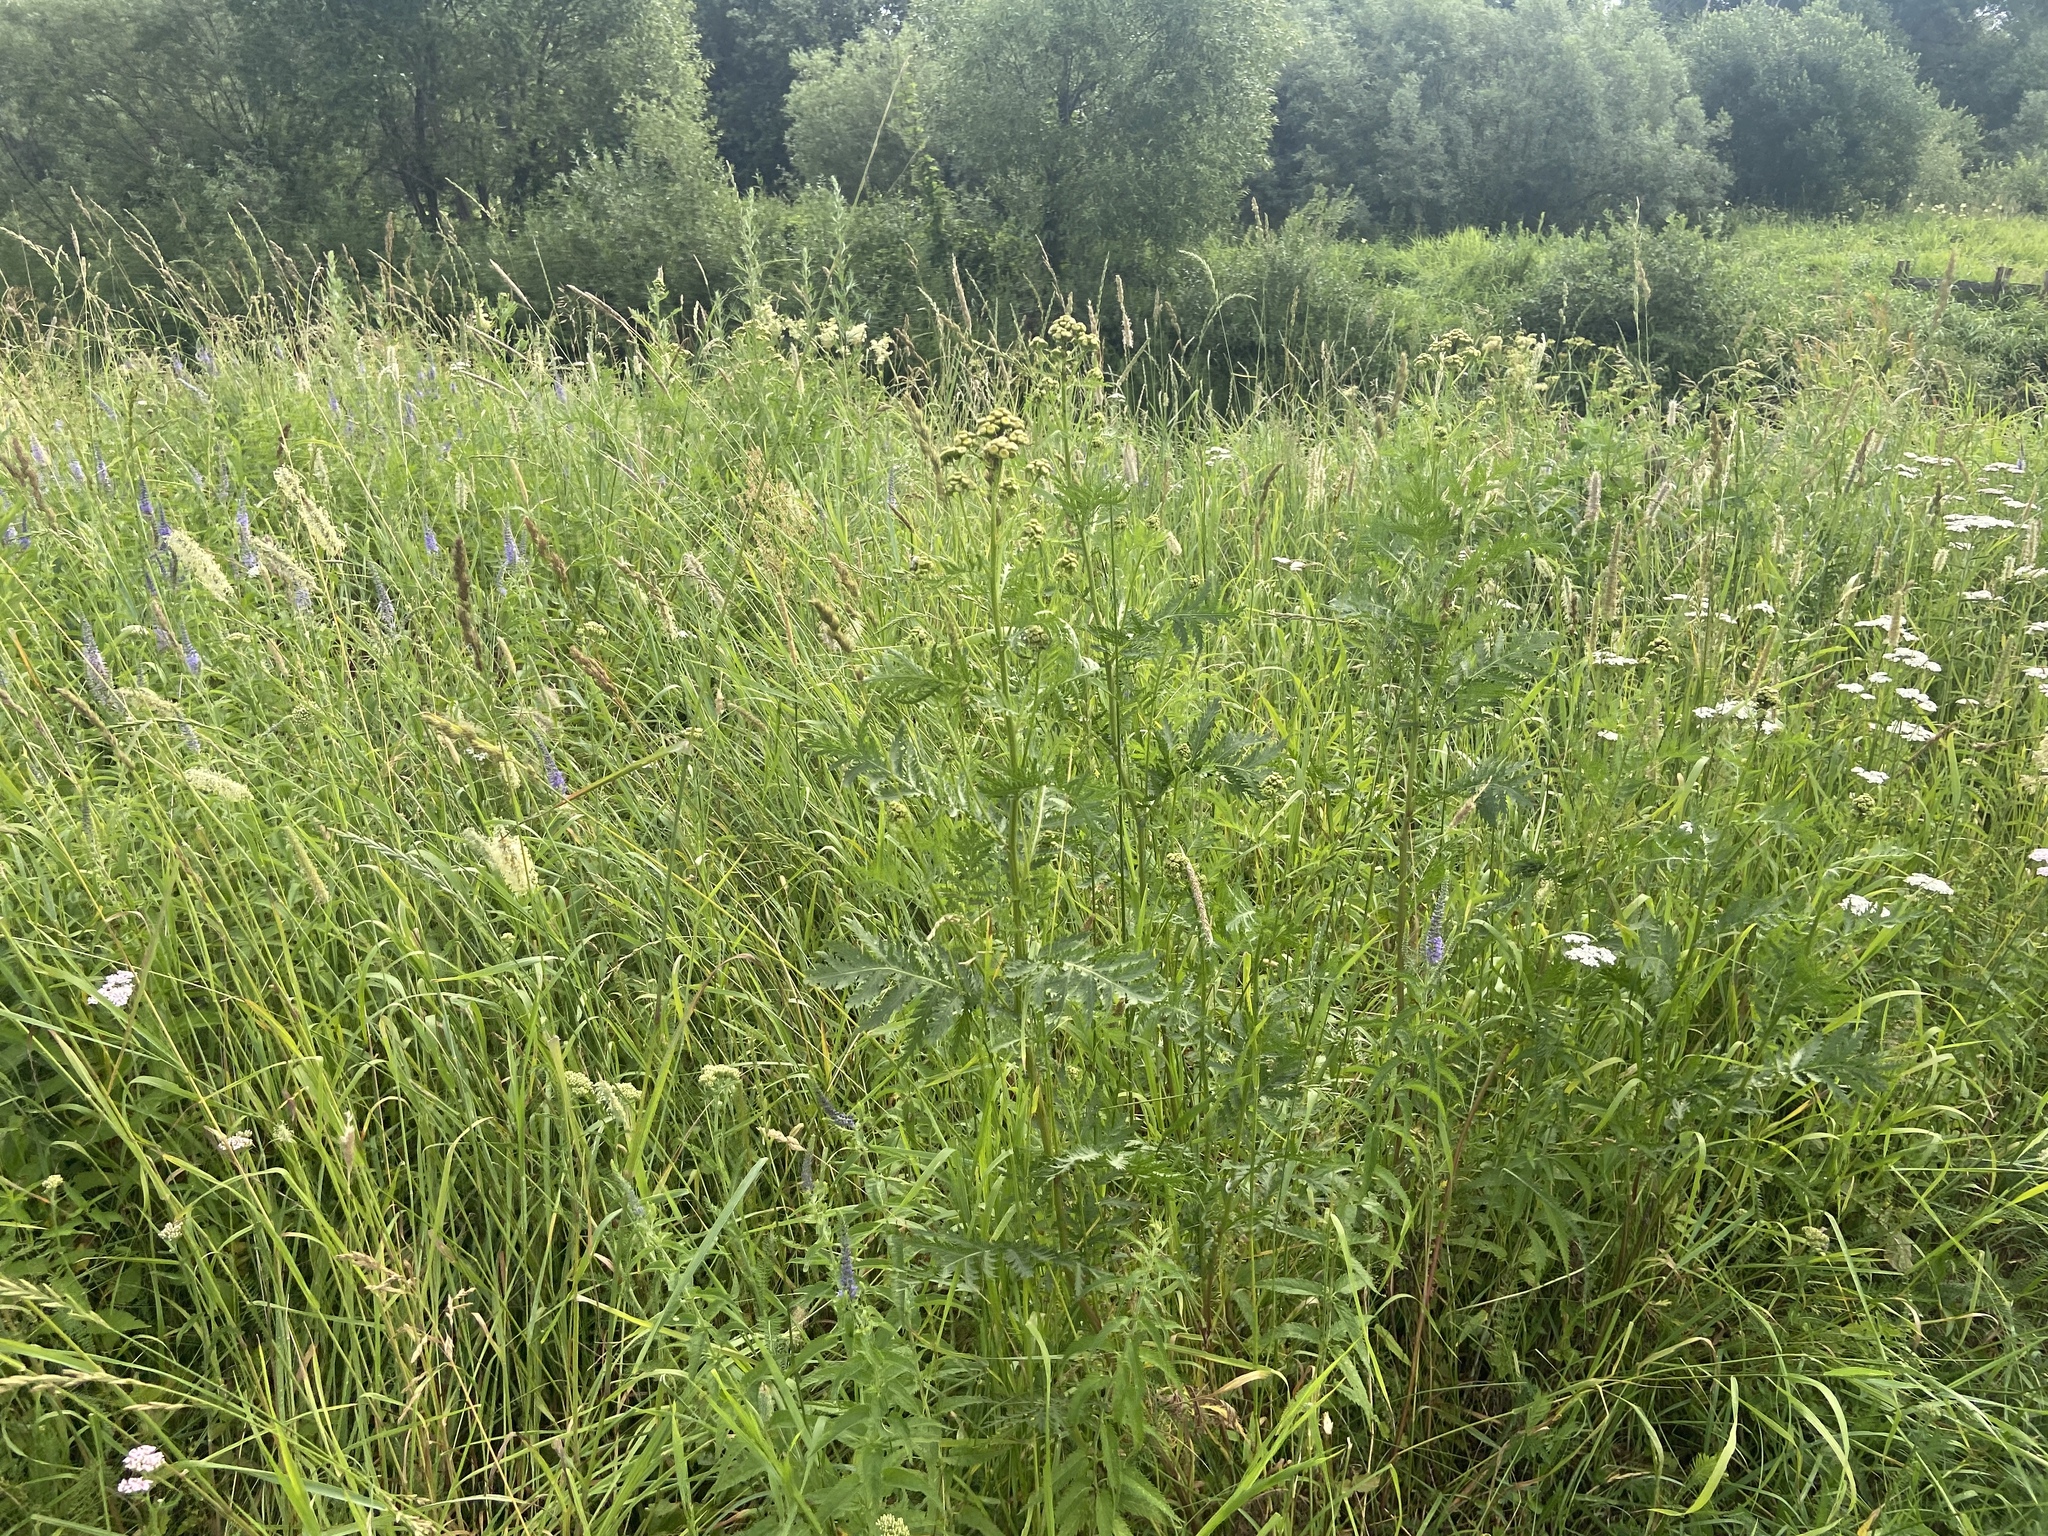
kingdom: Plantae
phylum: Tracheophyta
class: Magnoliopsida
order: Asterales
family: Asteraceae
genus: Tanacetum
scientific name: Tanacetum vulgare
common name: Common tansy
